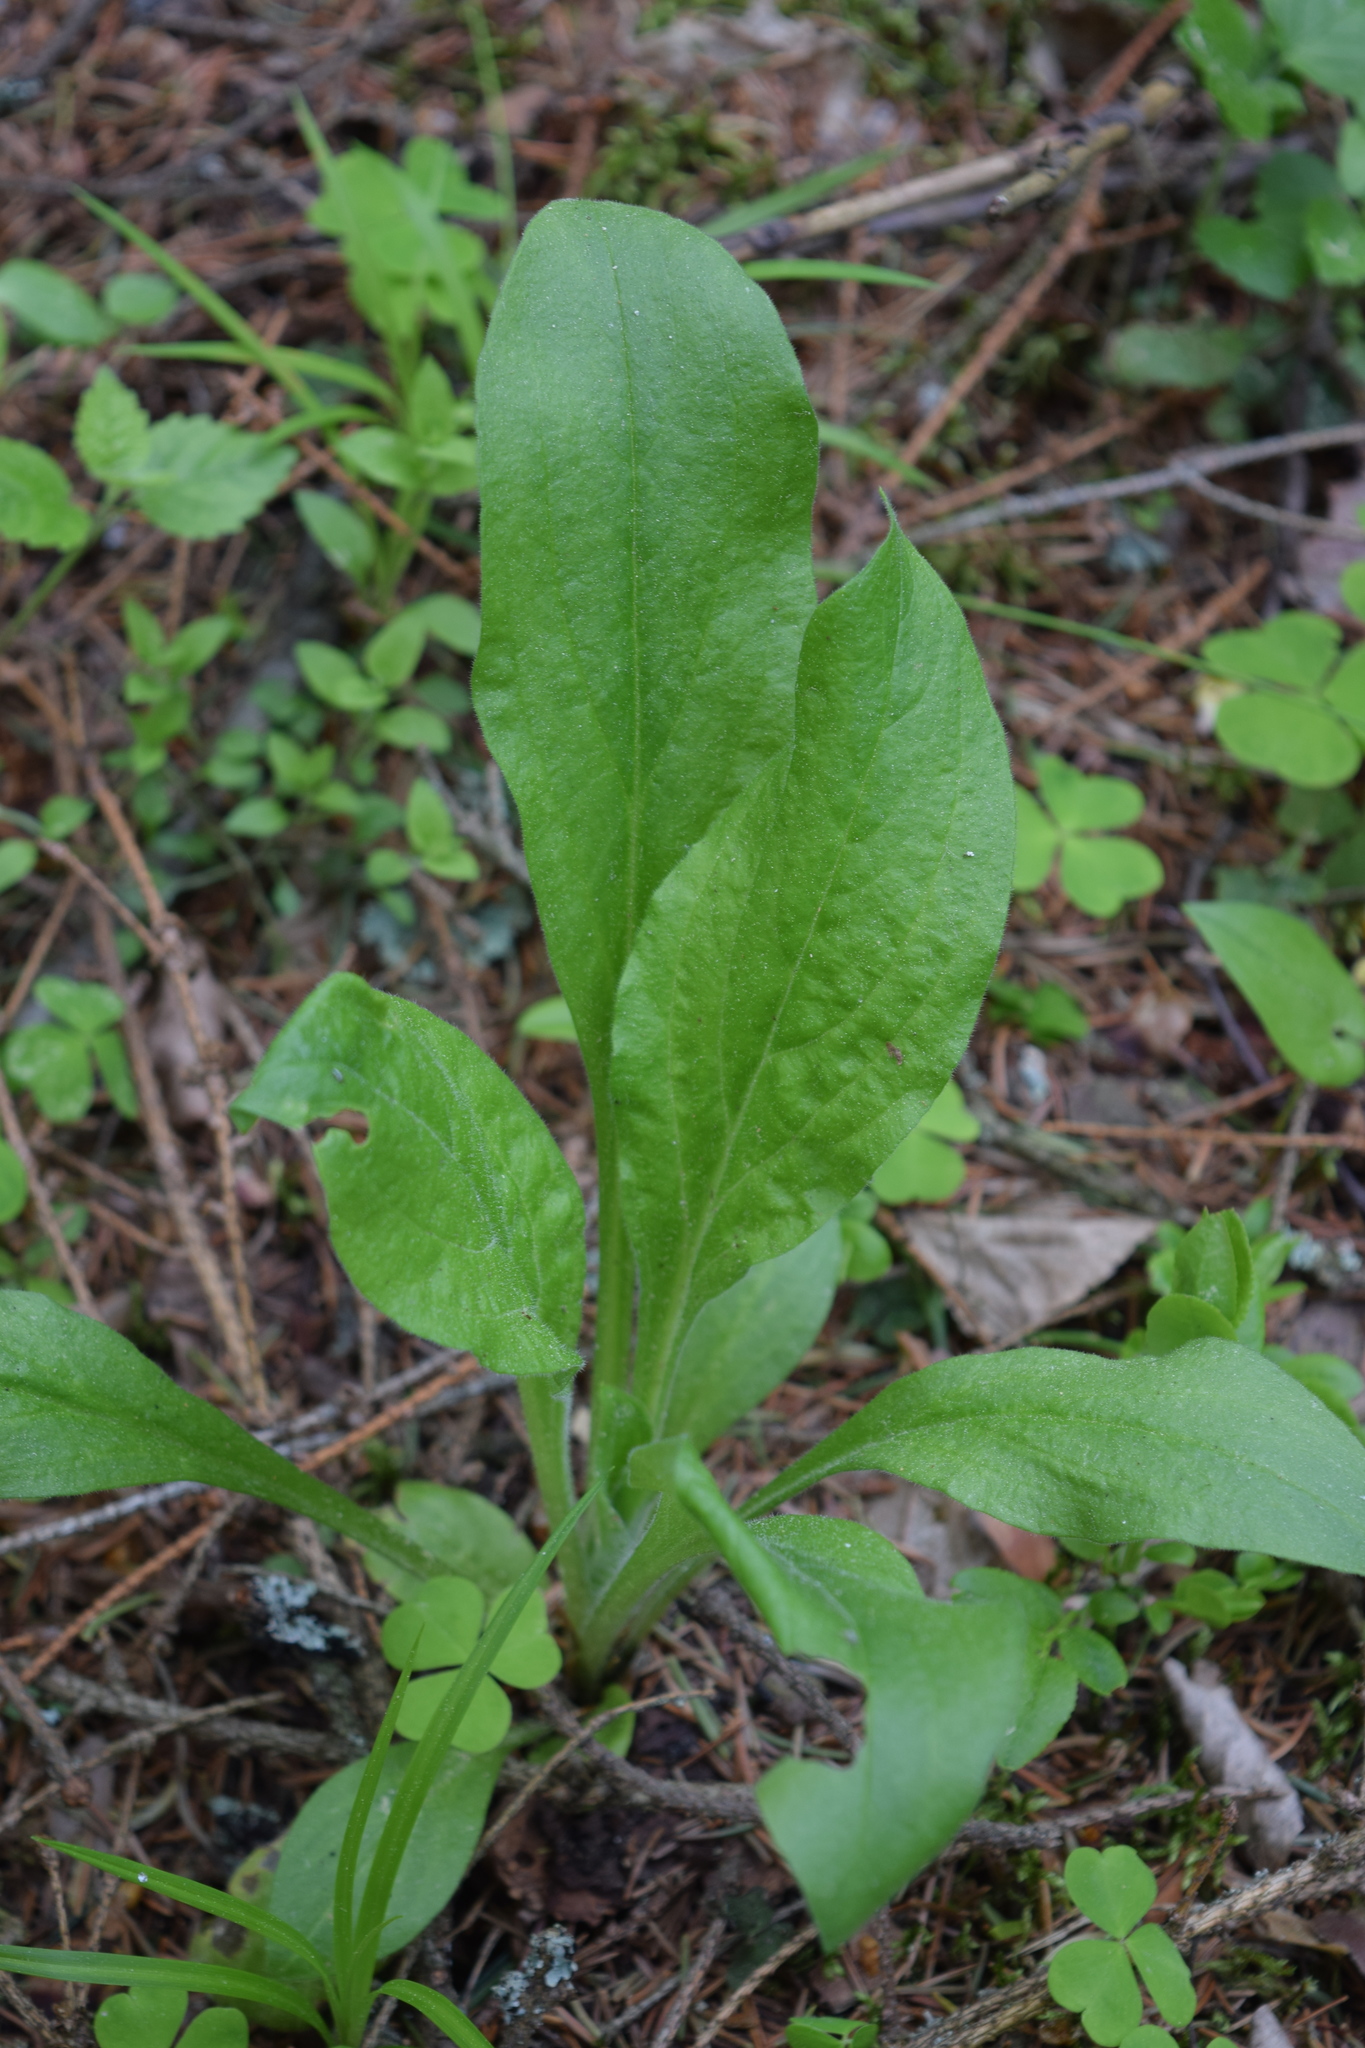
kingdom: Plantae
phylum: Tracheophyta
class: Magnoliopsida
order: Boraginales
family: Boraginaceae
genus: Cynoglossum
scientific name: Cynoglossum officinale
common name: Hound's-tongue
